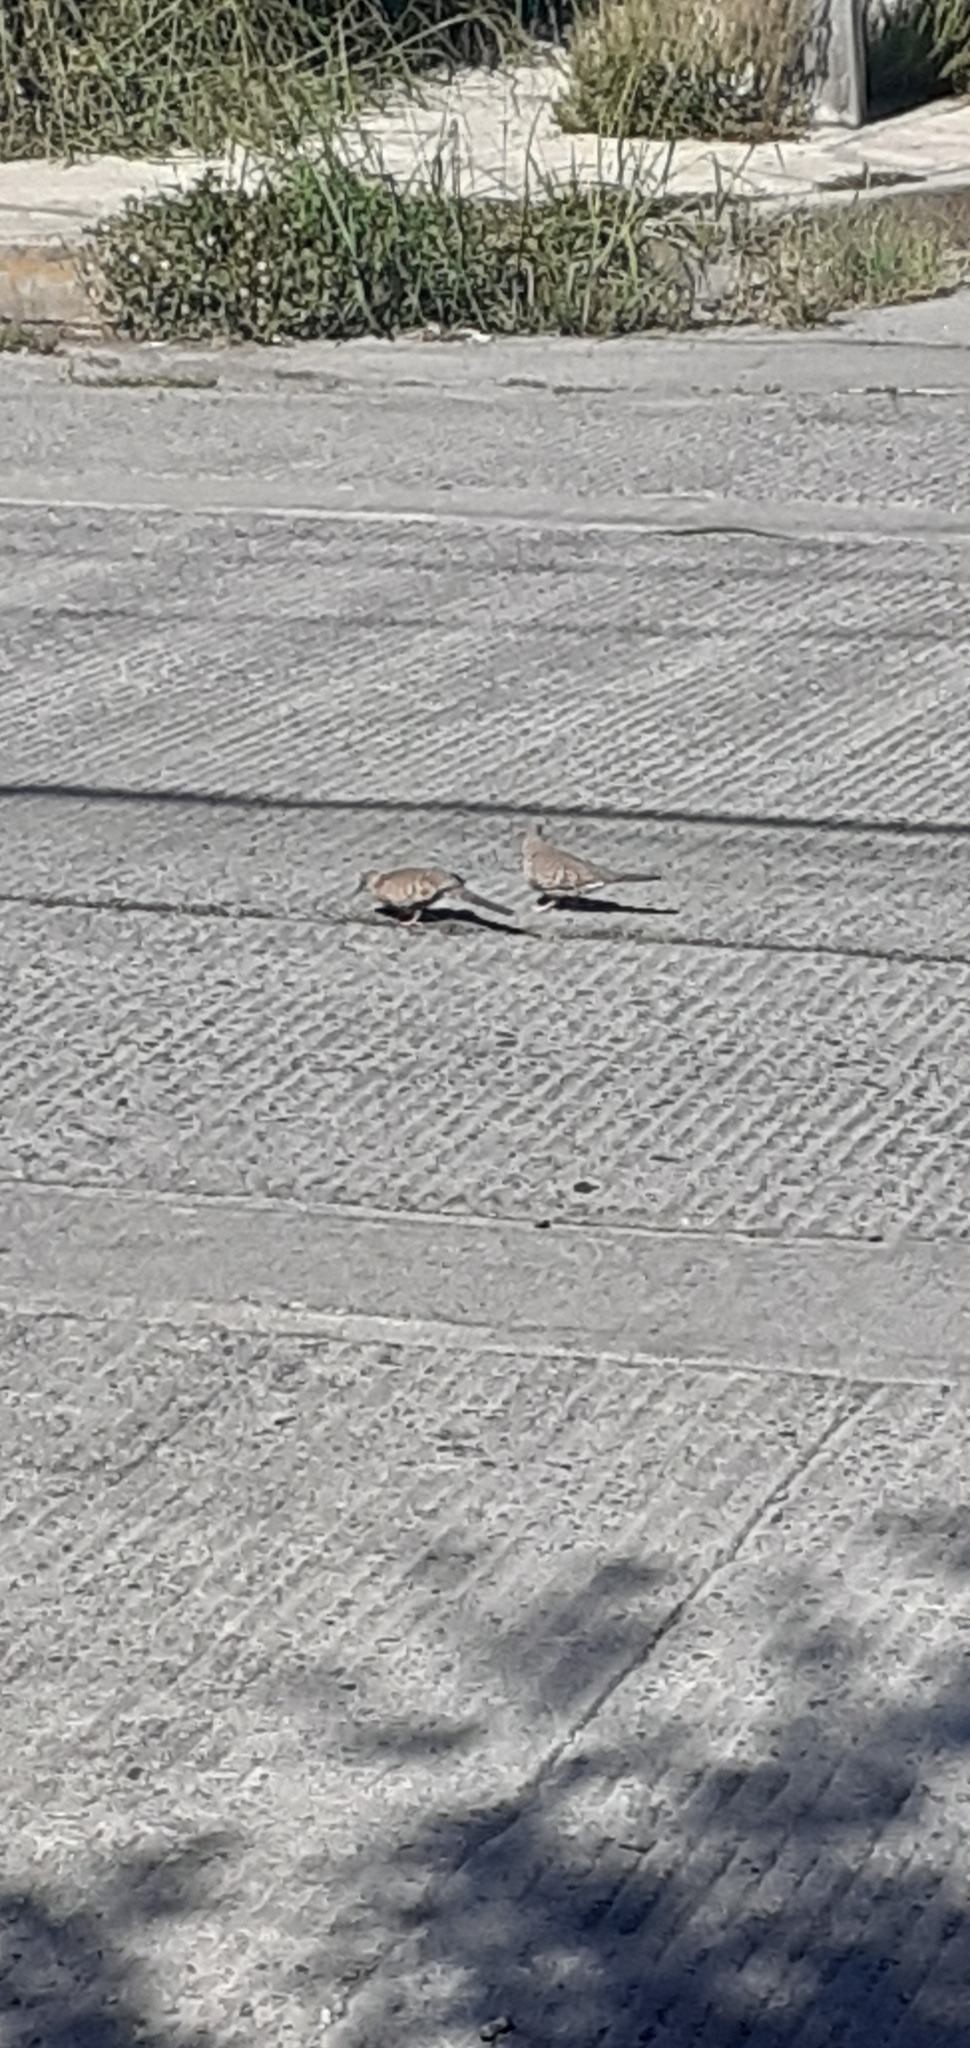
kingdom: Animalia
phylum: Chordata
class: Aves
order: Columbiformes
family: Columbidae
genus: Columbina
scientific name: Columbina inca
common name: Inca dove
